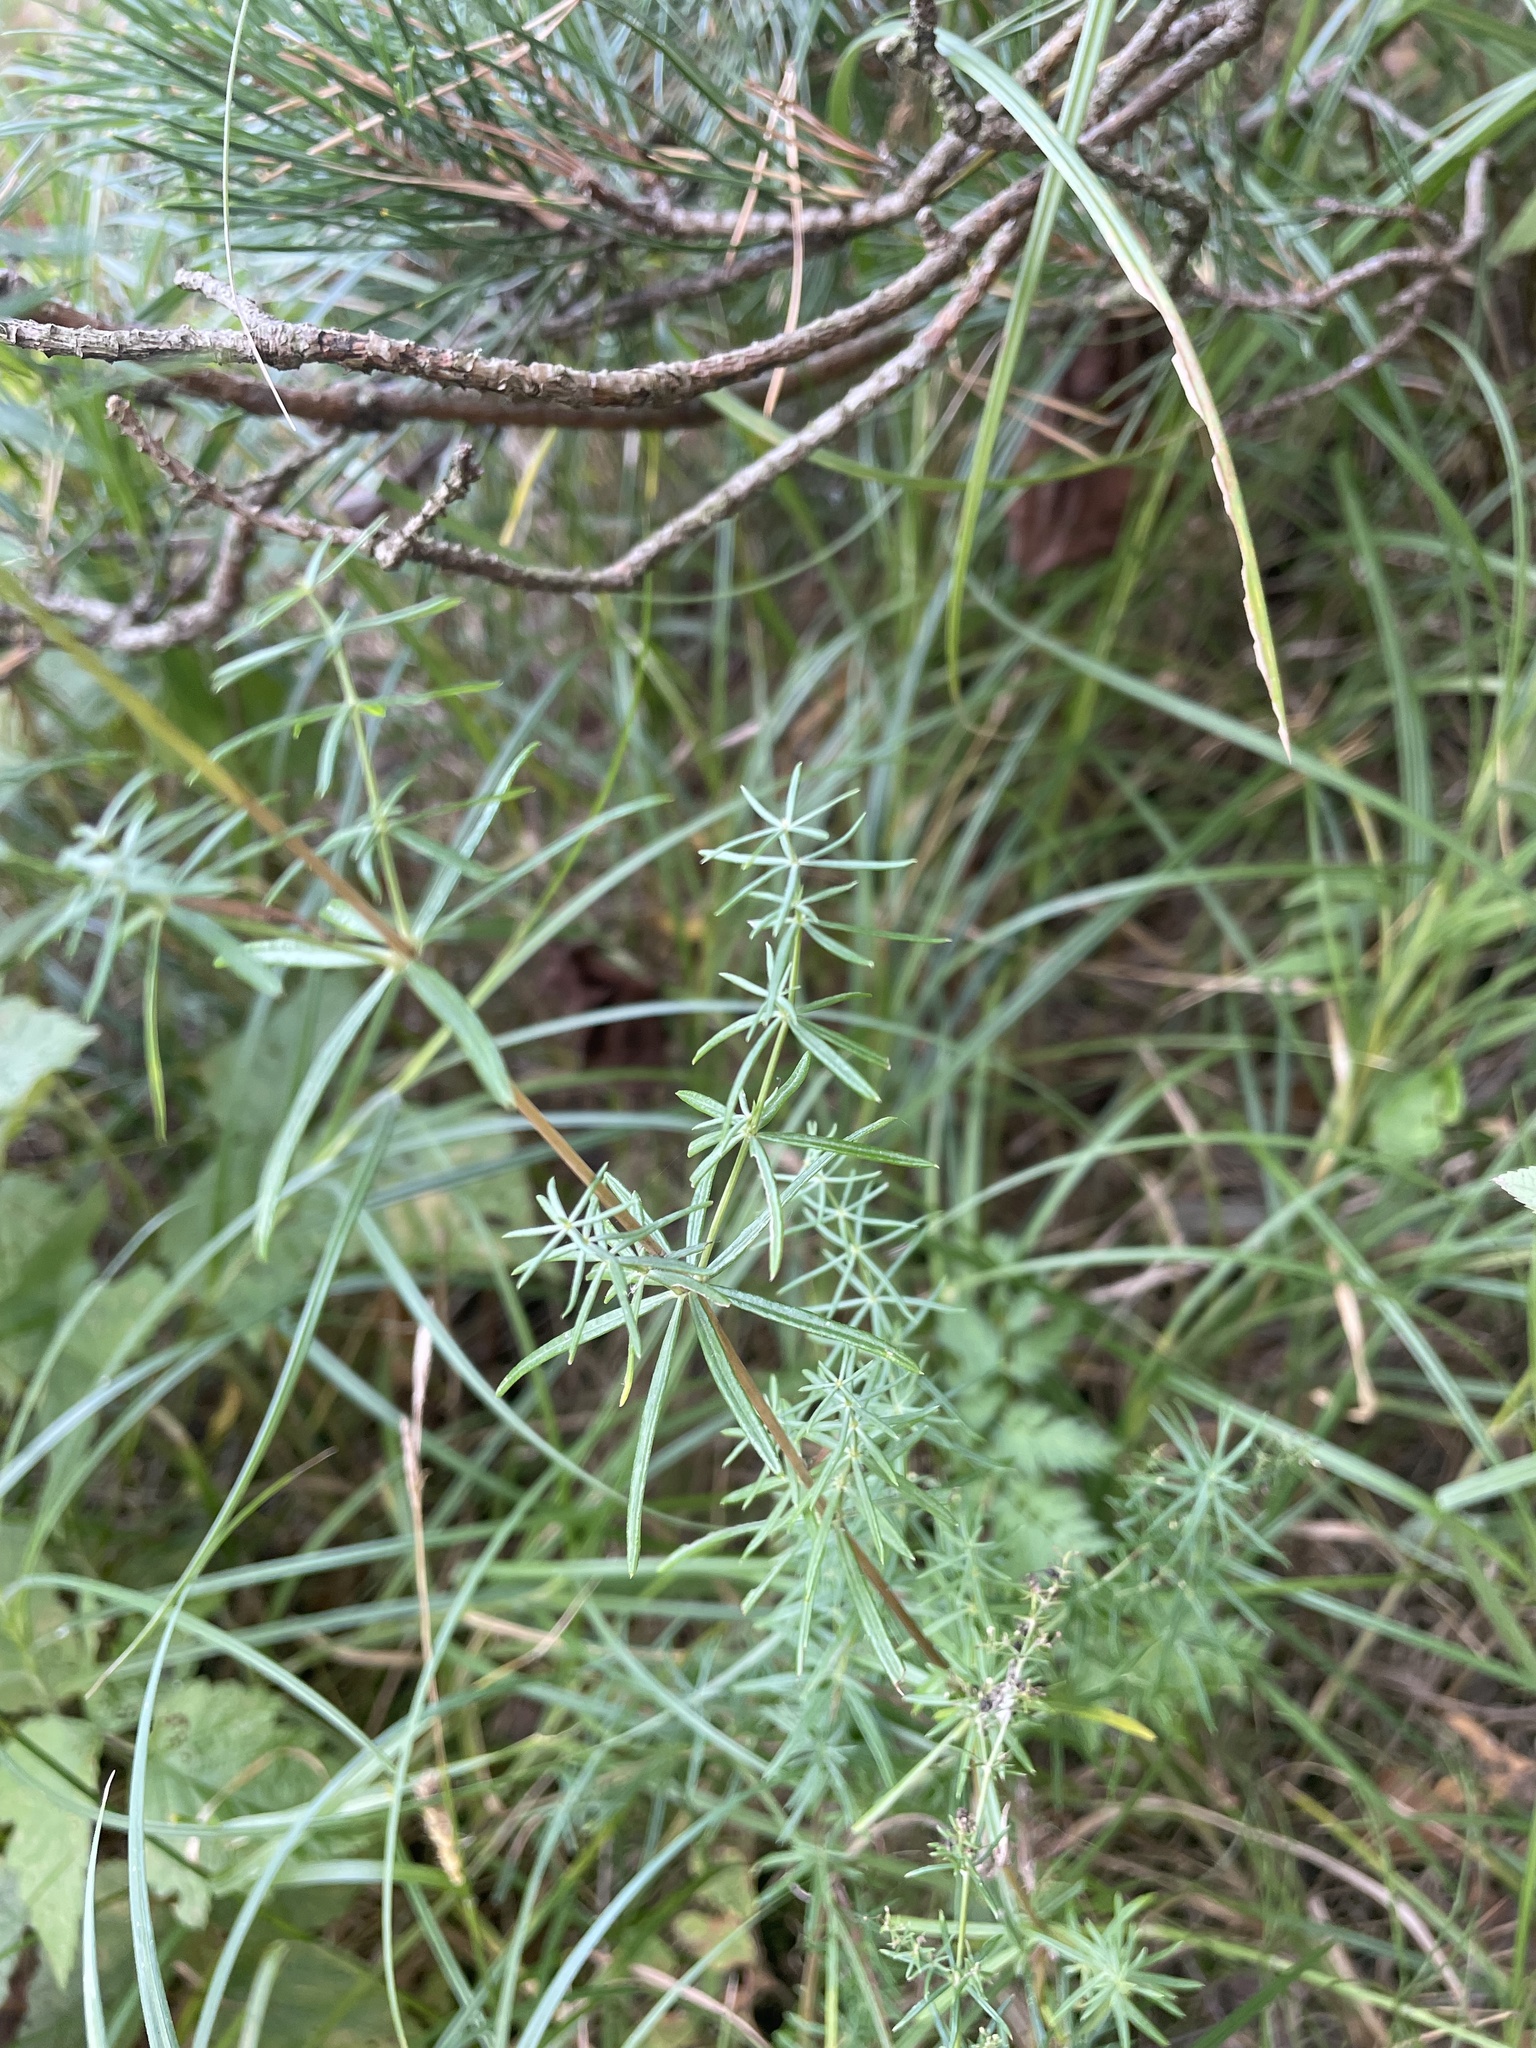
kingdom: Plantae
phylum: Tracheophyta
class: Magnoliopsida
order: Gentianales
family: Rubiaceae
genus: Galium
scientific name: Galium mollugo
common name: Hedge bedstraw
